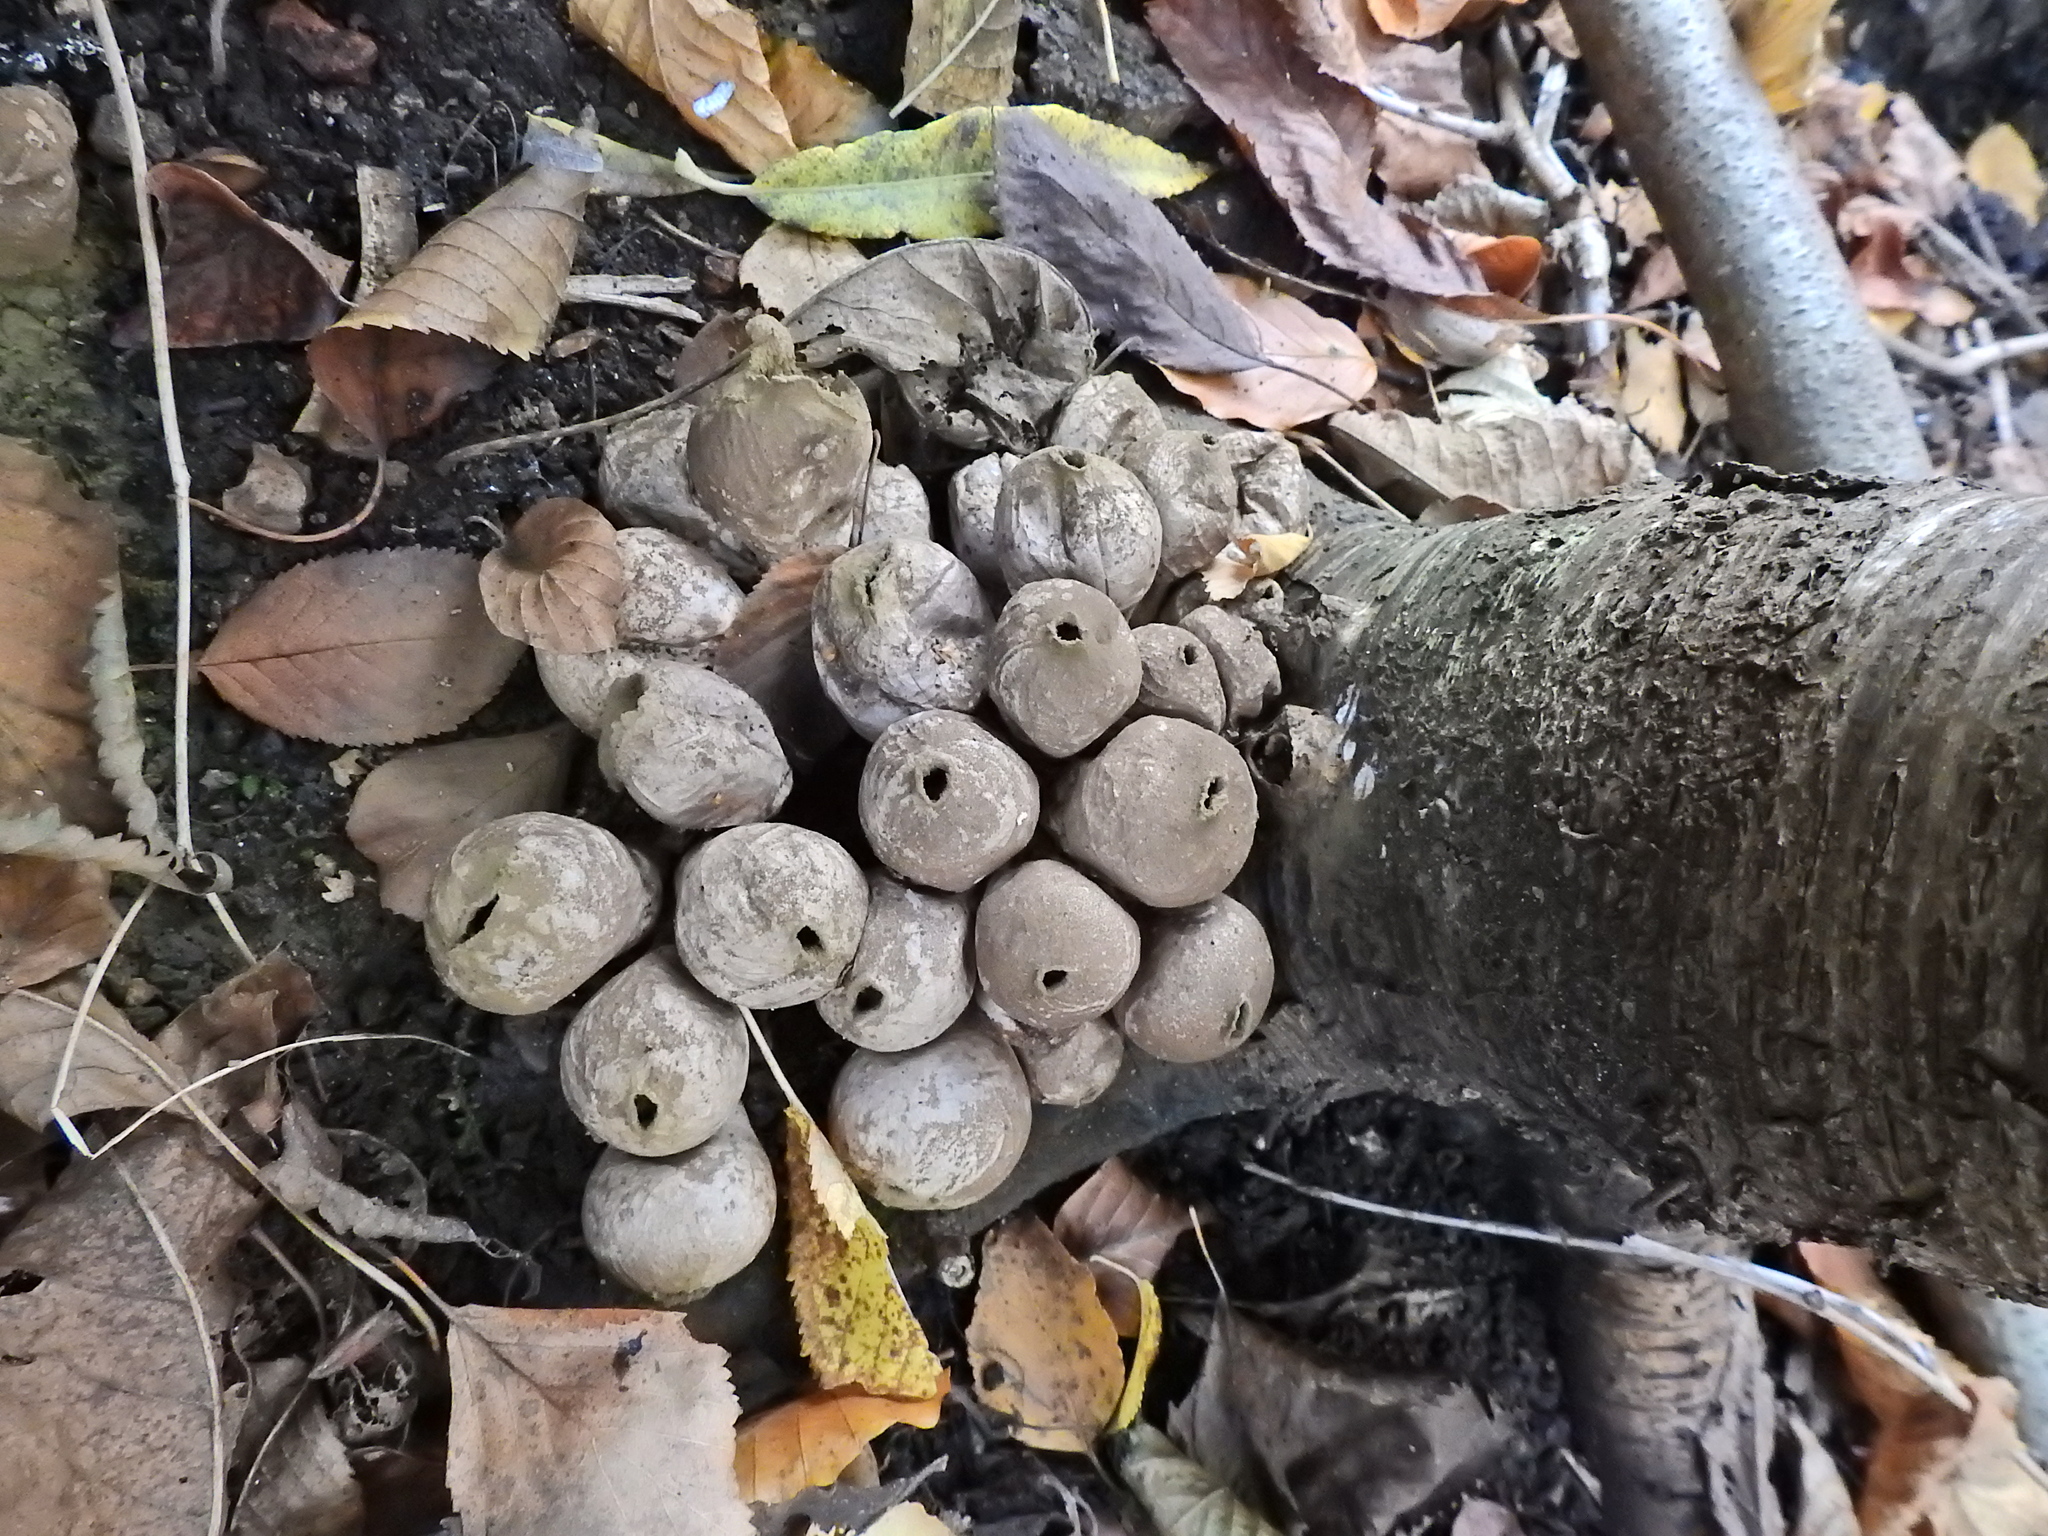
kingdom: Fungi
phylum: Basidiomycota
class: Agaricomycetes
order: Agaricales
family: Lycoperdaceae
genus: Apioperdon
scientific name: Apioperdon pyriforme
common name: Pear-shaped puffball
